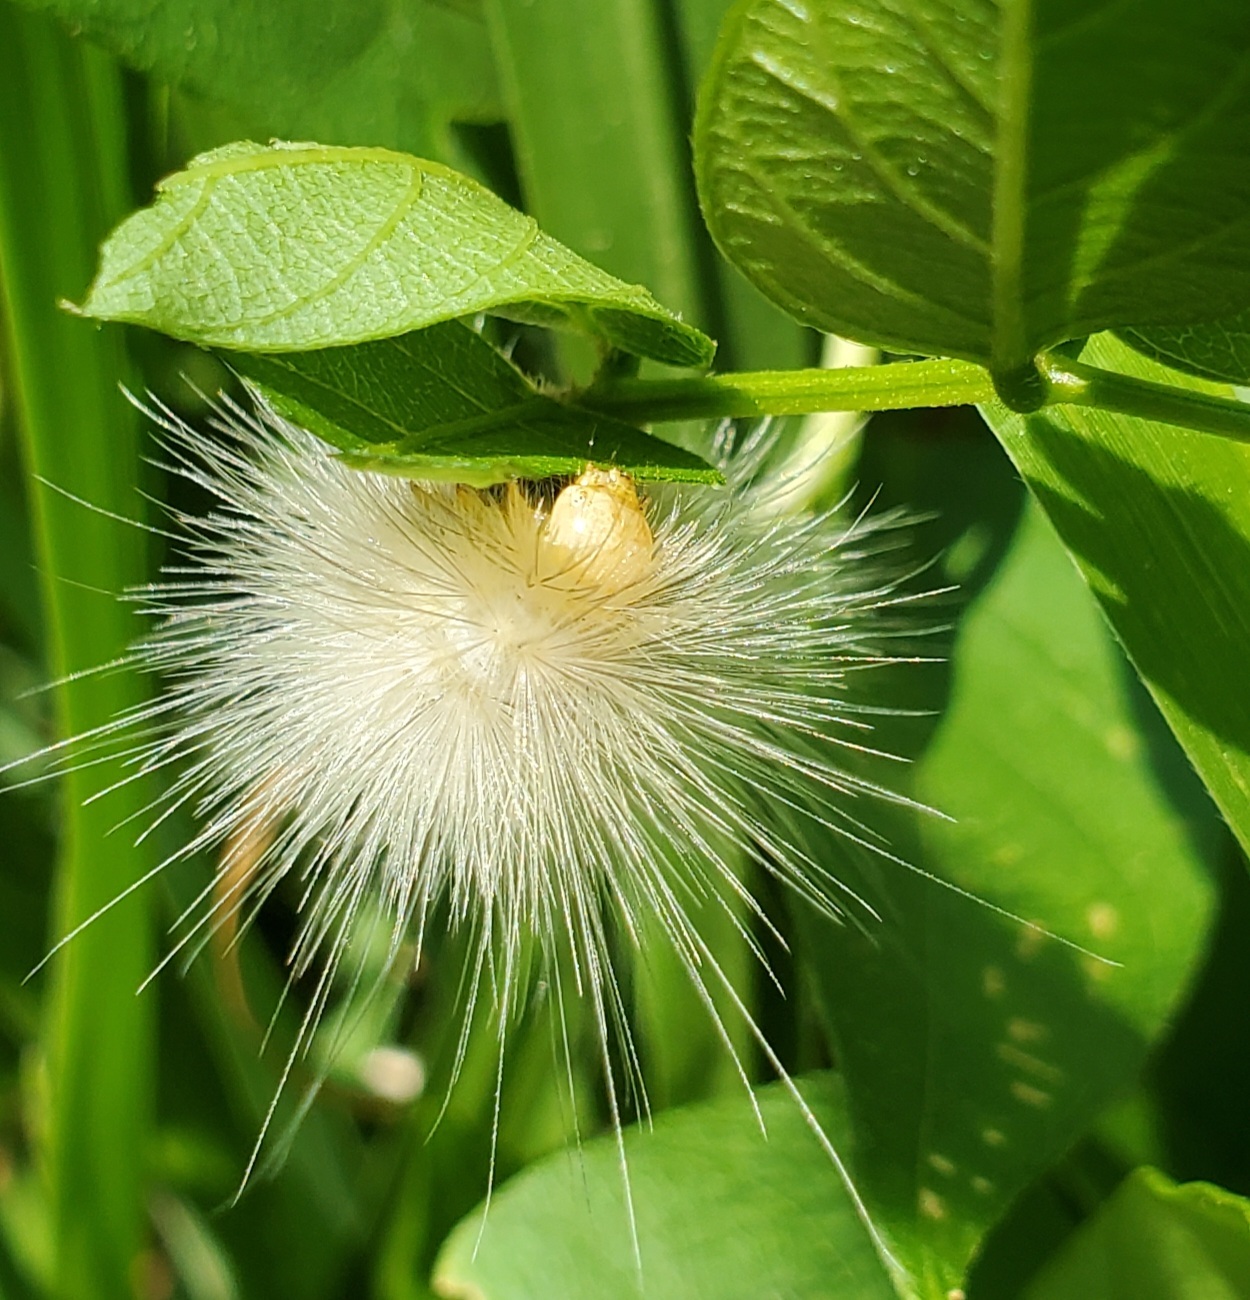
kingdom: Animalia
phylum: Arthropoda
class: Insecta
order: Lepidoptera
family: Erebidae
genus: Spilosoma
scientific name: Spilosoma virginica
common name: Virginia tiger moth
